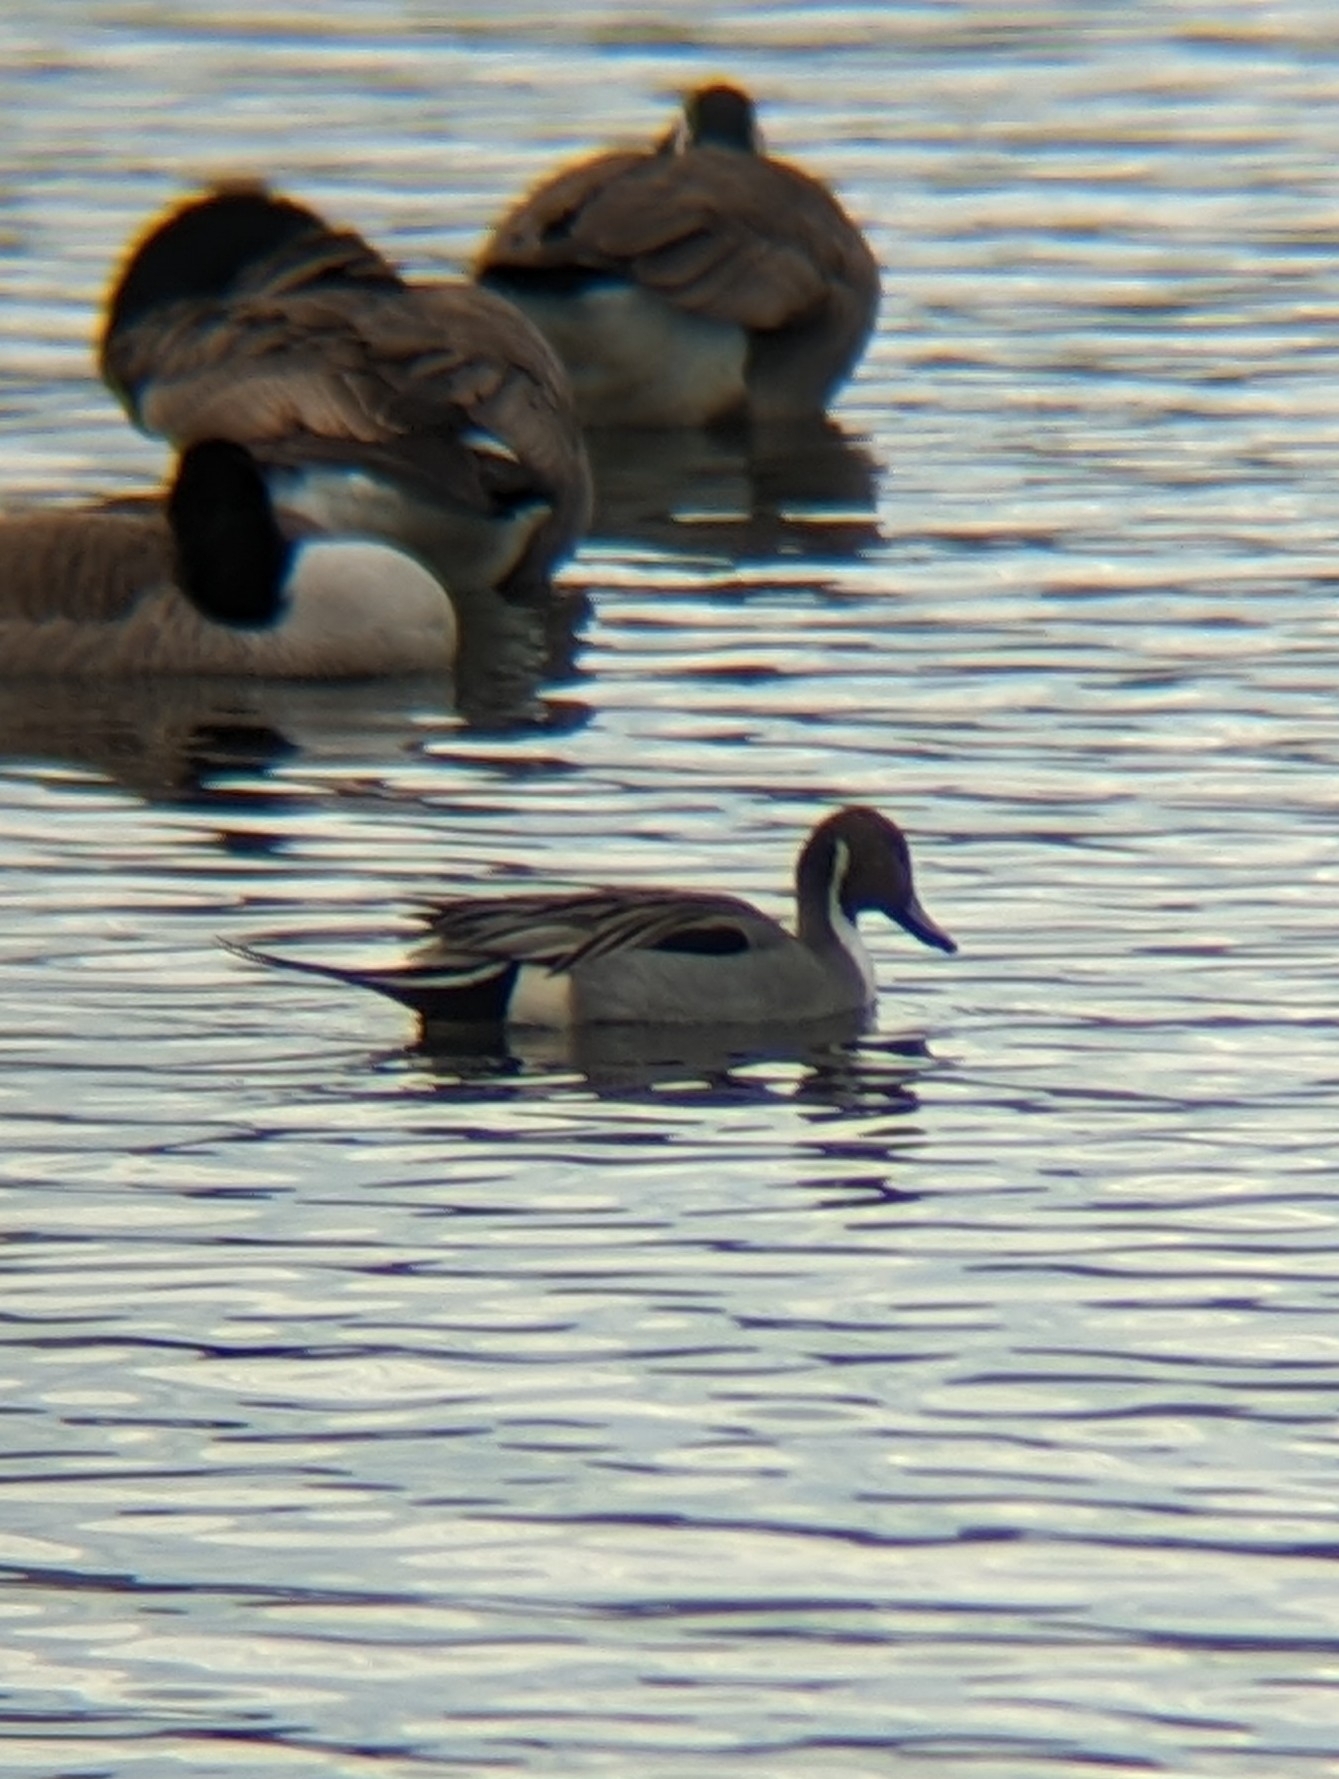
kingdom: Animalia
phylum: Chordata
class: Aves
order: Anseriformes
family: Anatidae
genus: Anas
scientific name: Anas acuta
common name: Northern pintail
